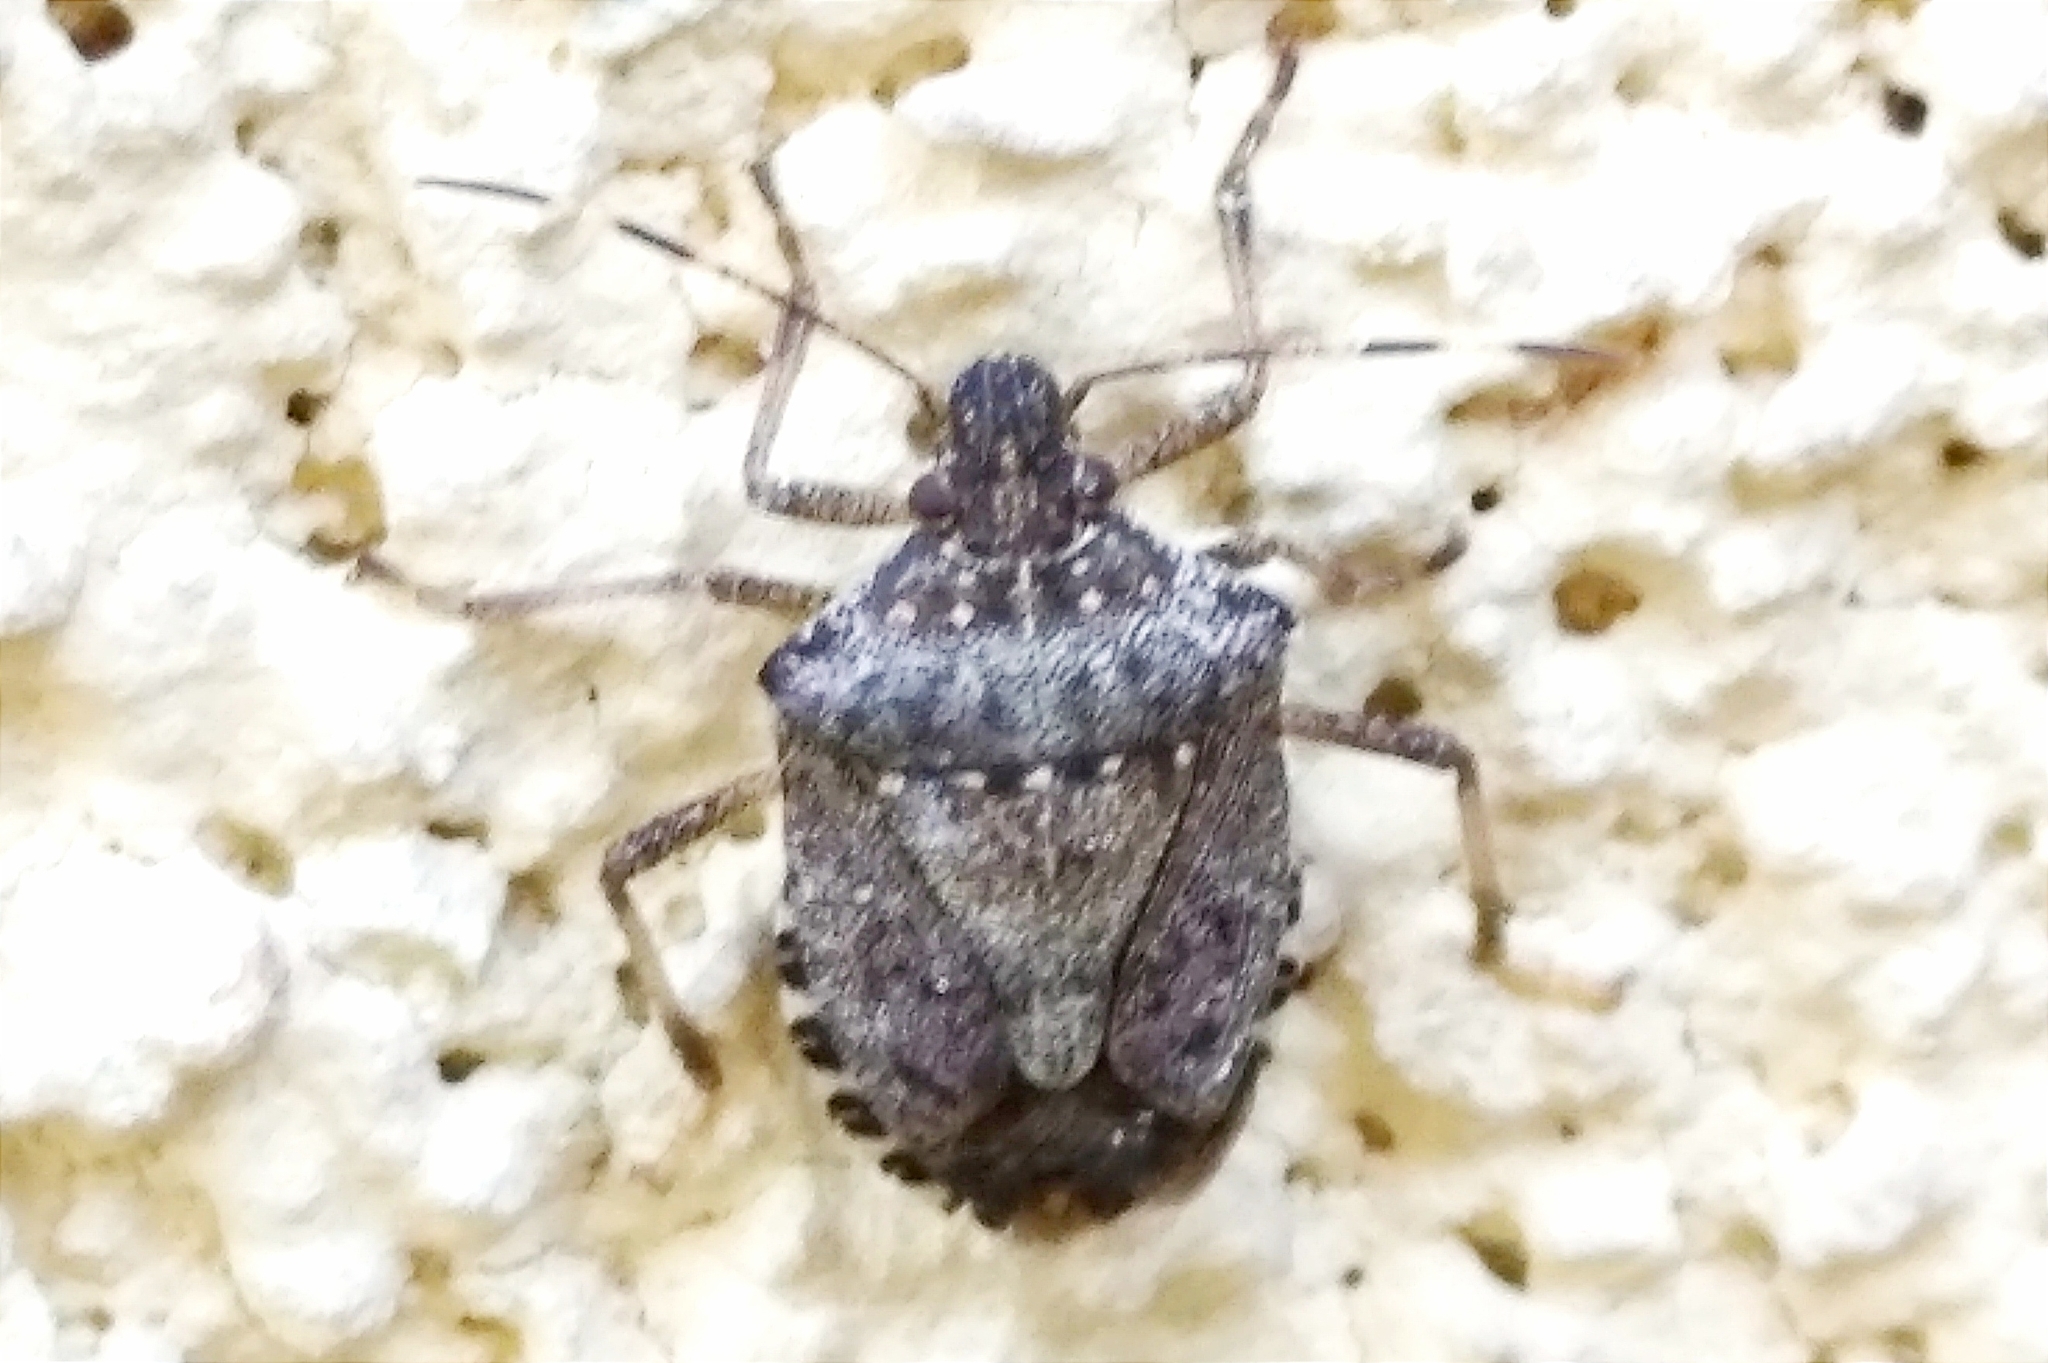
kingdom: Animalia
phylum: Arthropoda
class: Insecta
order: Hemiptera
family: Pentatomidae
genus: Halyomorpha
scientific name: Halyomorpha halys
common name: Brown marmorated stink bug
